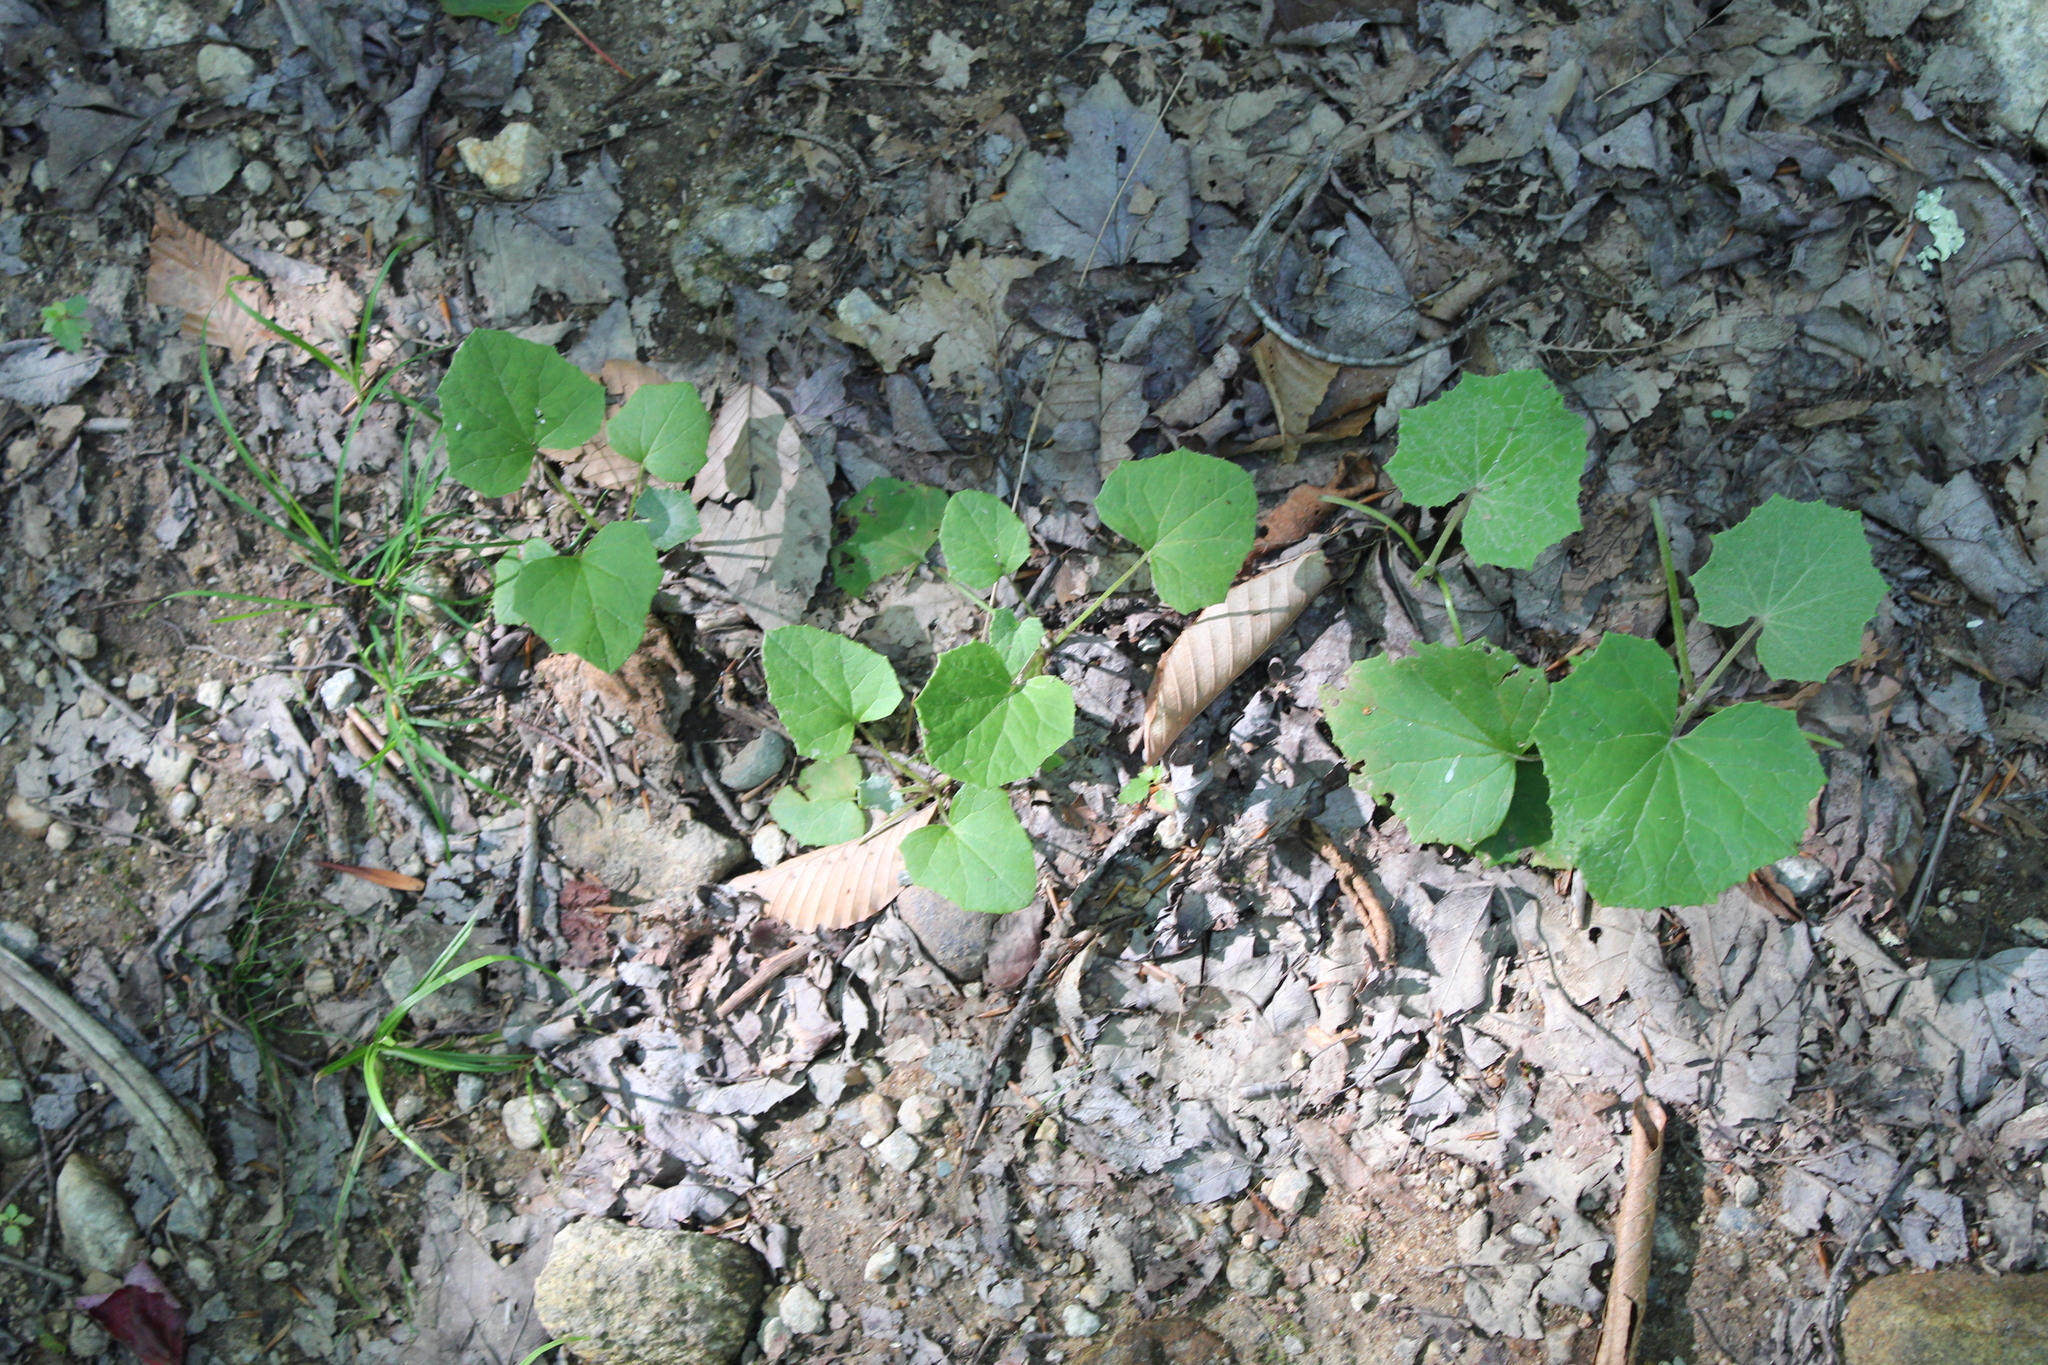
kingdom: Plantae
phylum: Tracheophyta
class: Magnoliopsida
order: Asterales
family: Asteraceae
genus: Tussilago
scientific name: Tussilago farfara
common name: Coltsfoot
